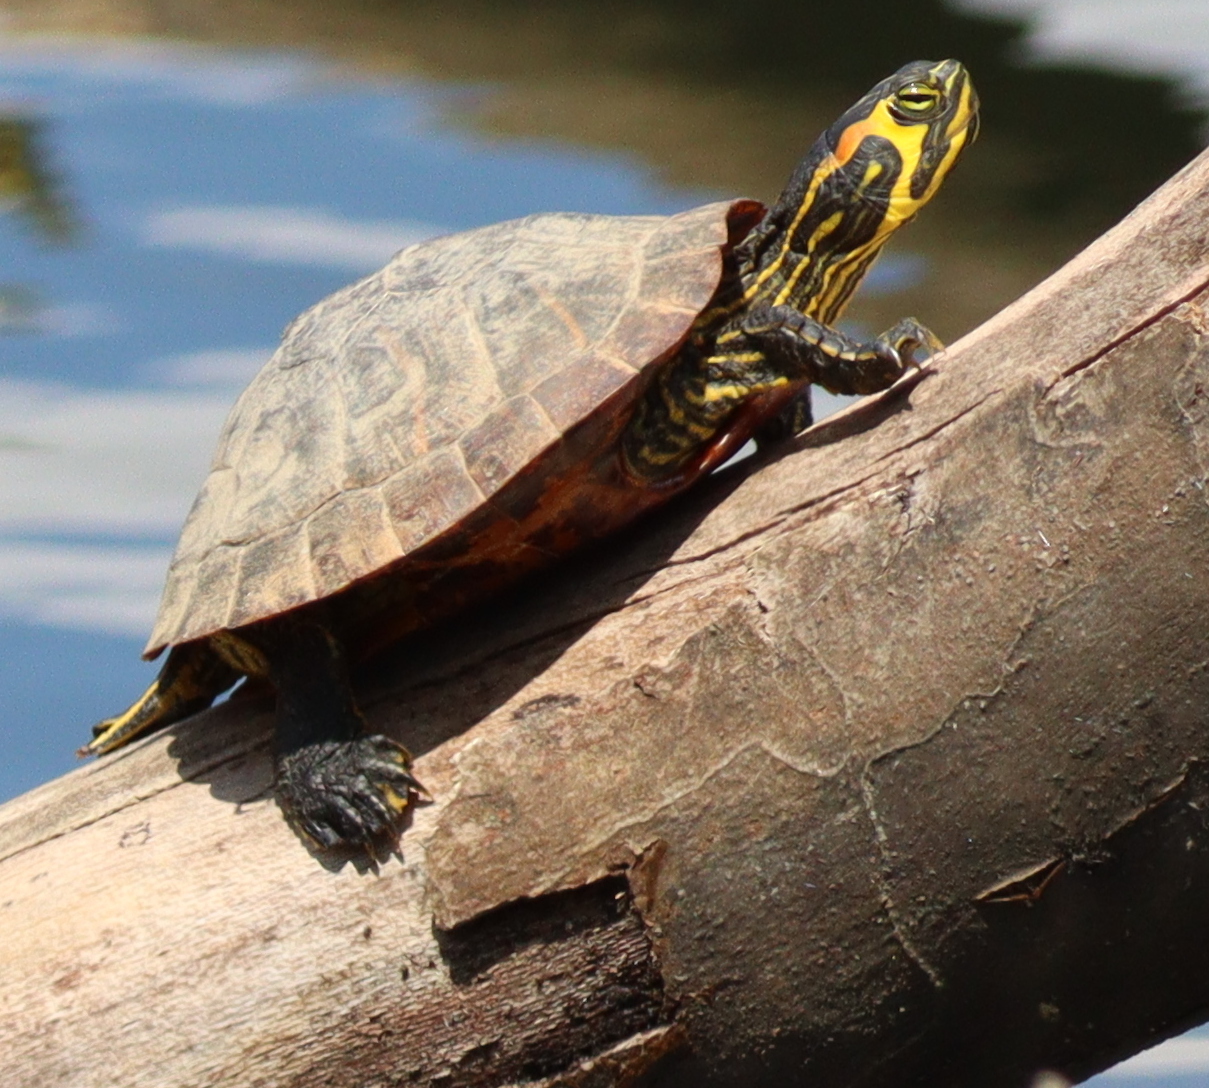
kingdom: Animalia
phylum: Chordata
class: Testudines
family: Emydidae
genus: Trachemys
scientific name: Trachemys scripta
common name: Slider
